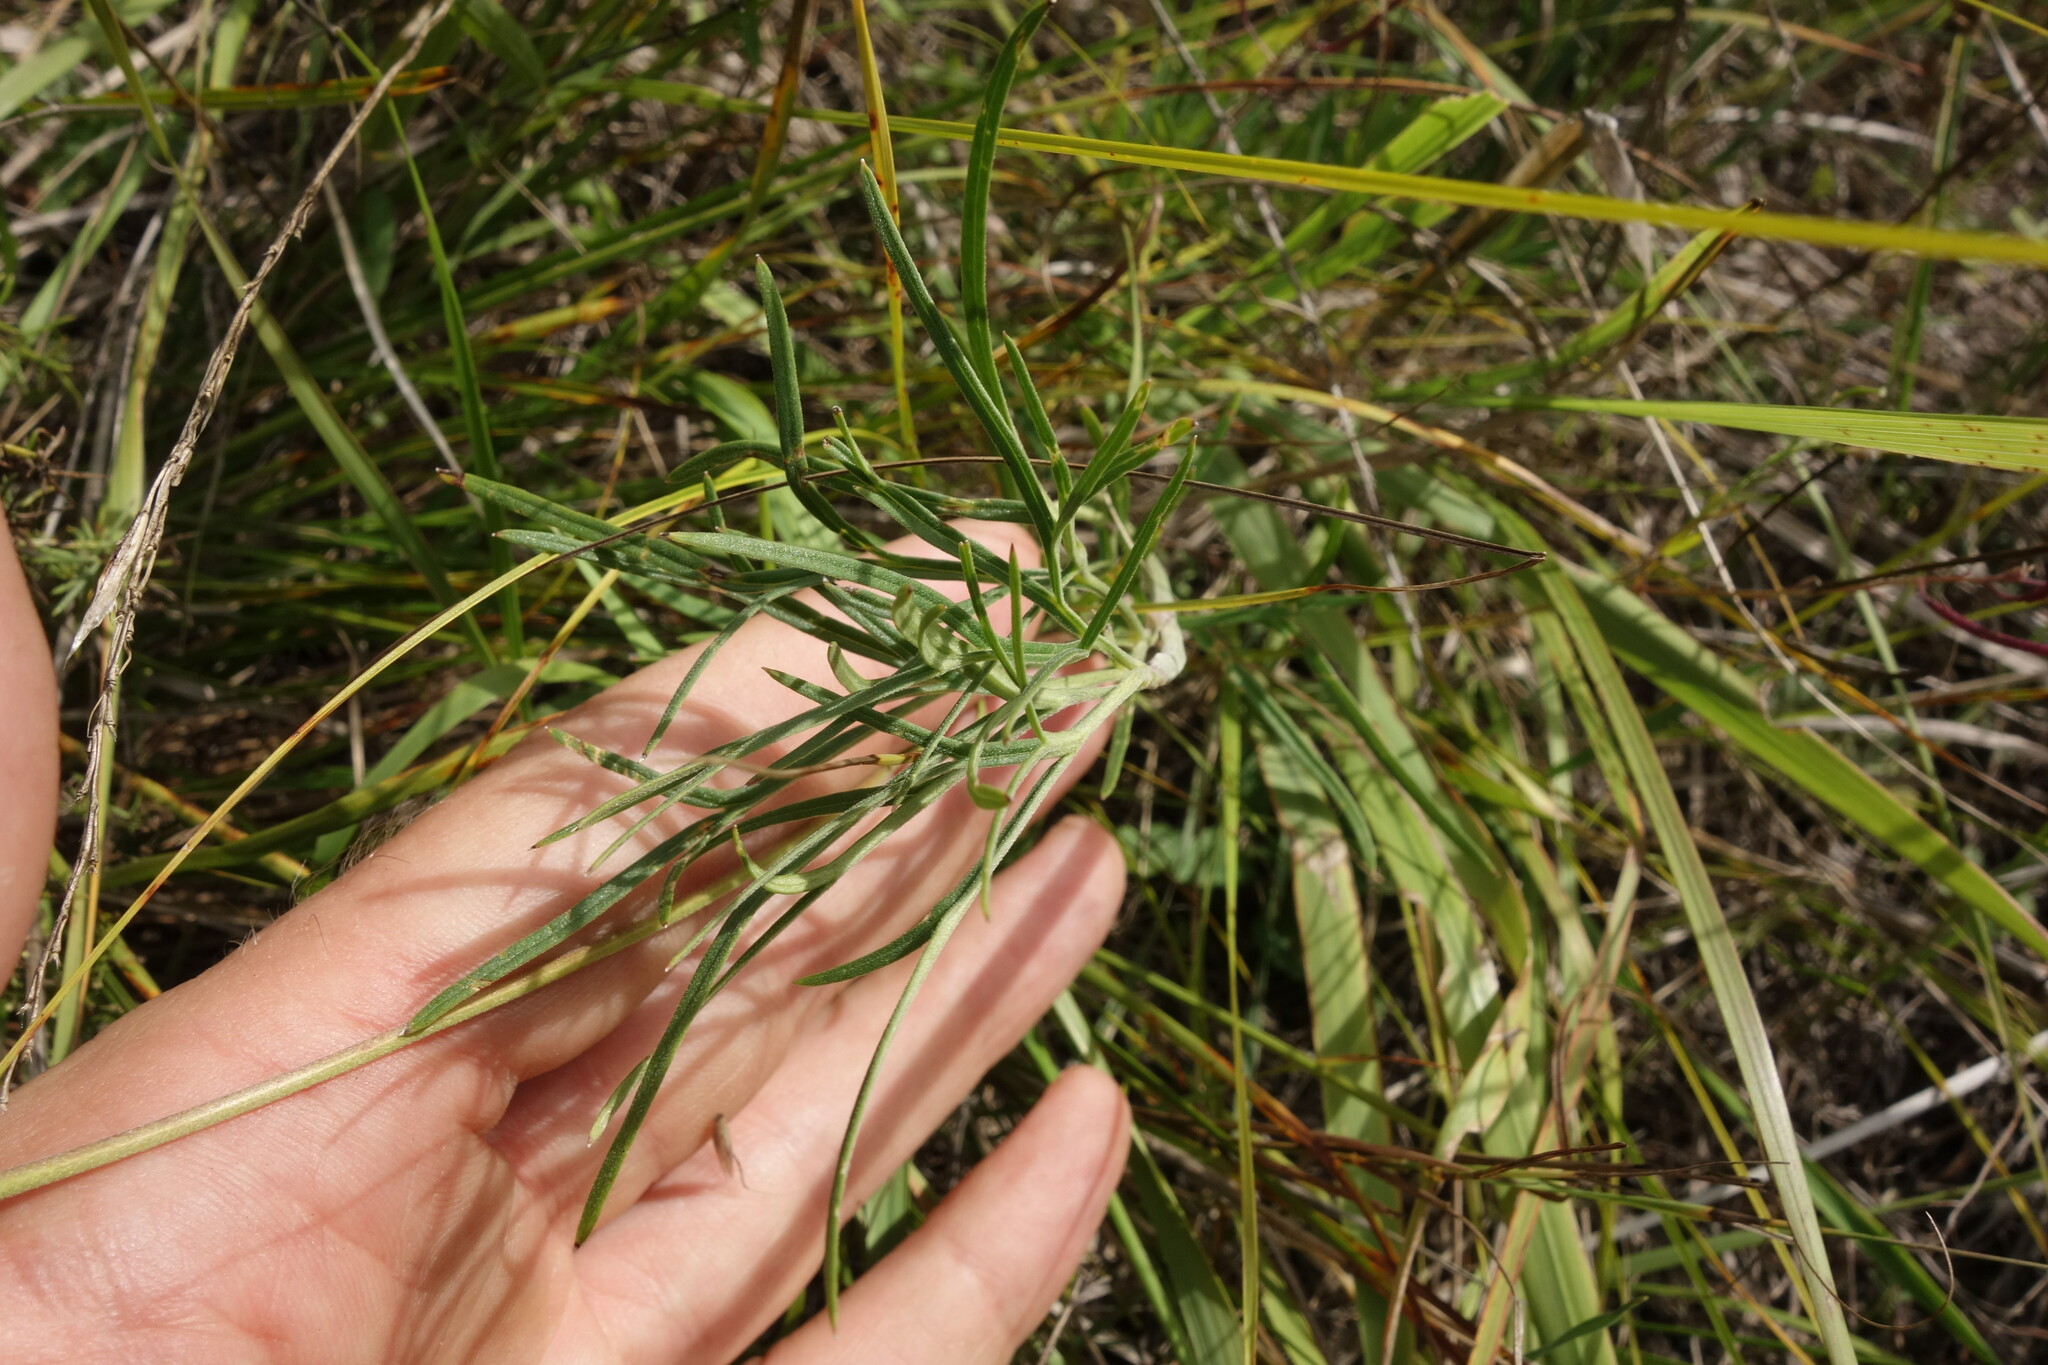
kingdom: Plantae
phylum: Tracheophyta
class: Magnoliopsida
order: Ranunculales
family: Ranunculaceae
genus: Delphinium
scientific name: Delphinium grandiflorum
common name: Siberian larkspur
